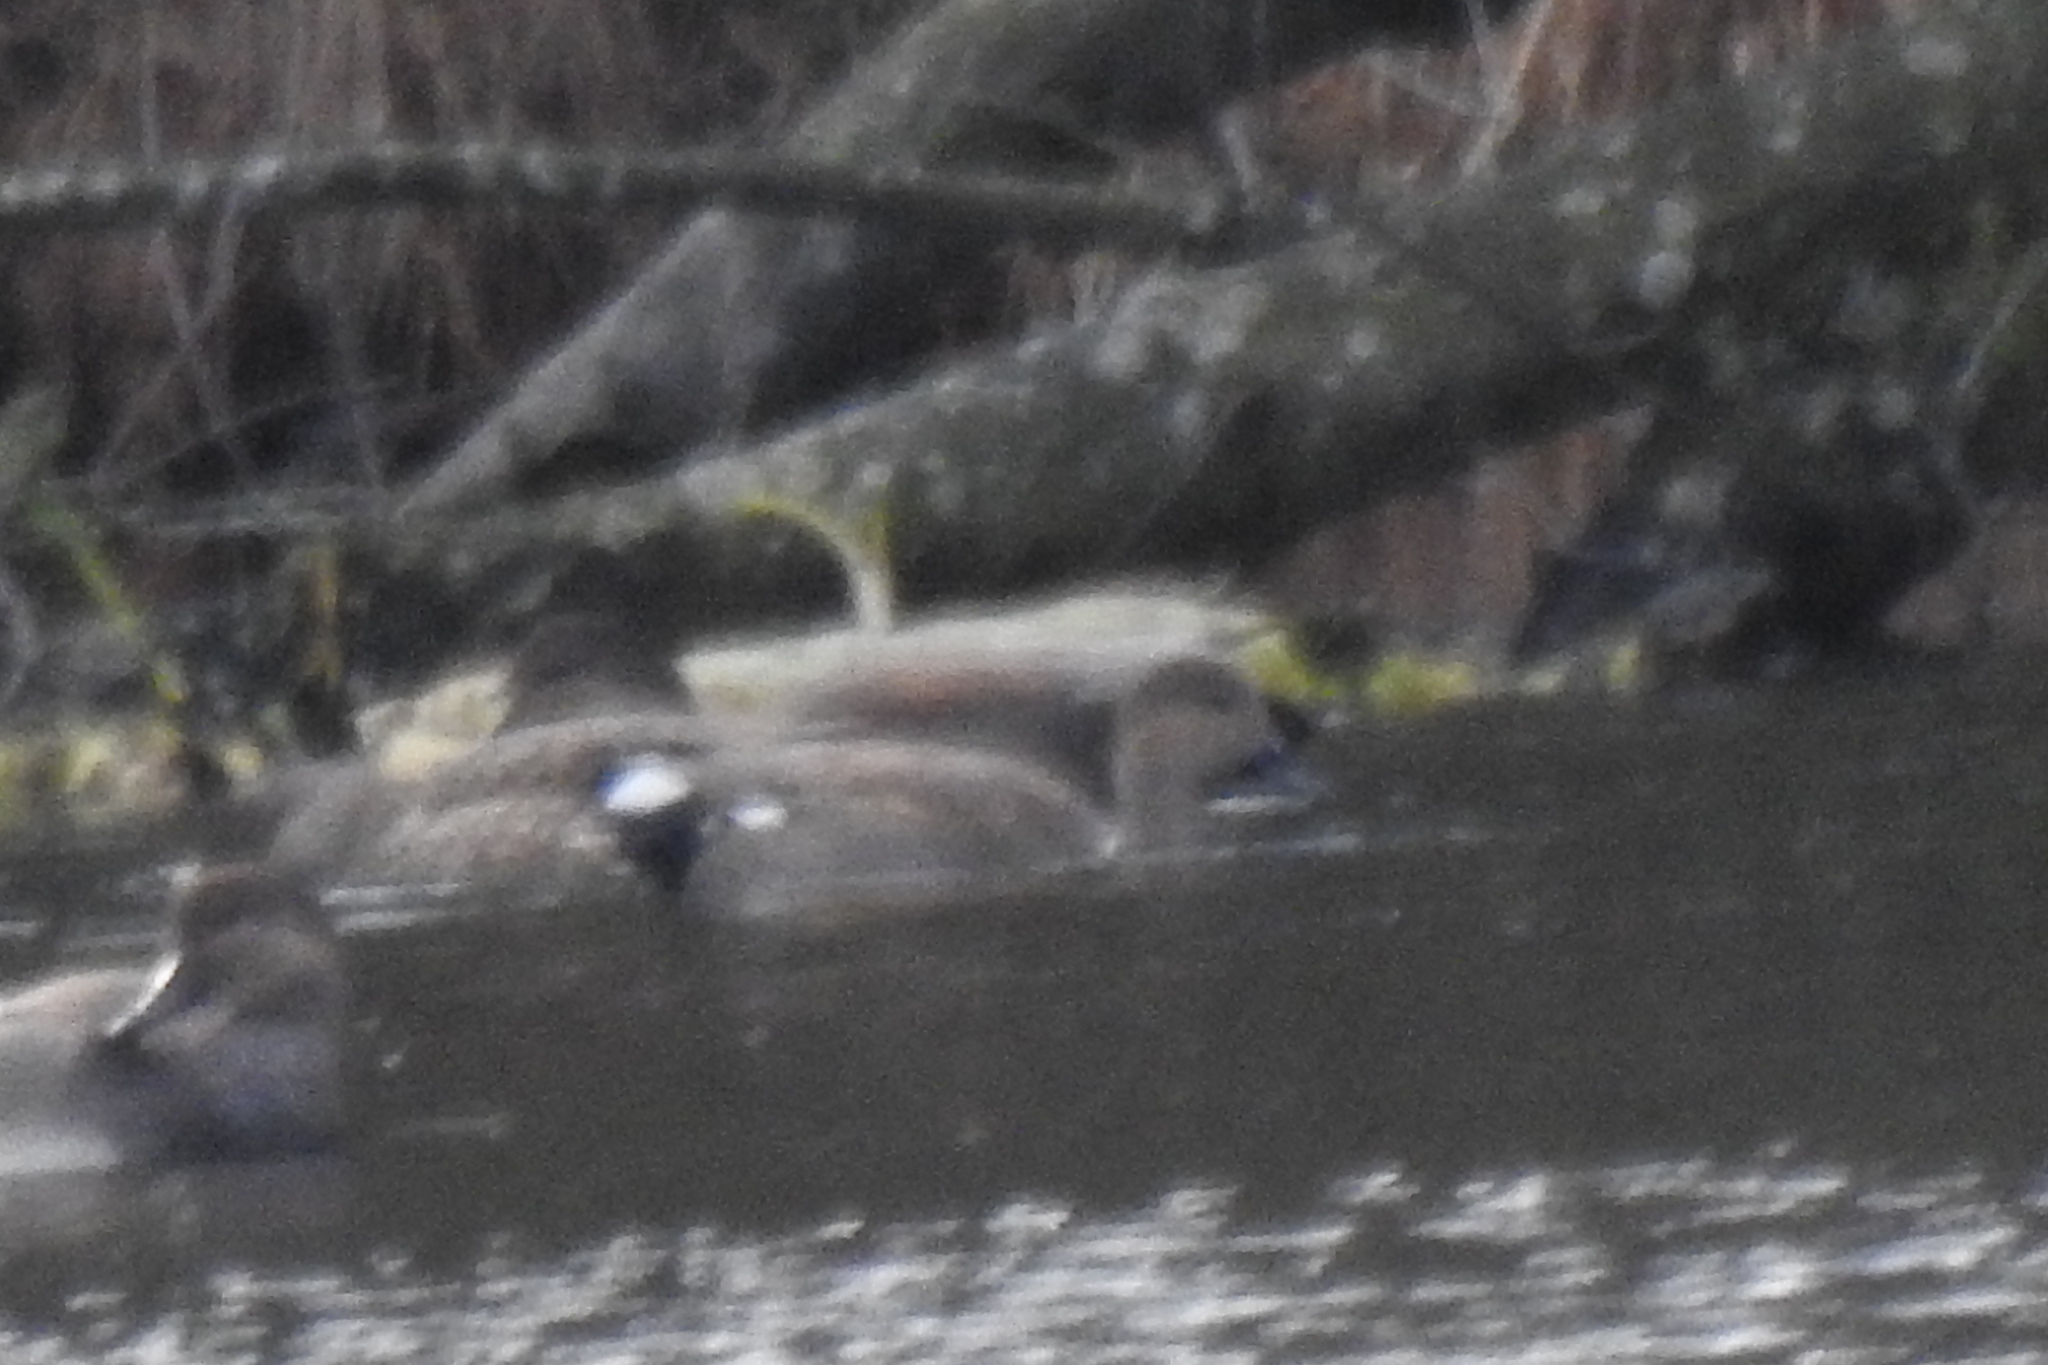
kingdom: Animalia
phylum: Chordata
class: Aves
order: Anseriformes
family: Anatidae
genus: Mareca
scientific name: Mareca strepera
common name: Gadwall
